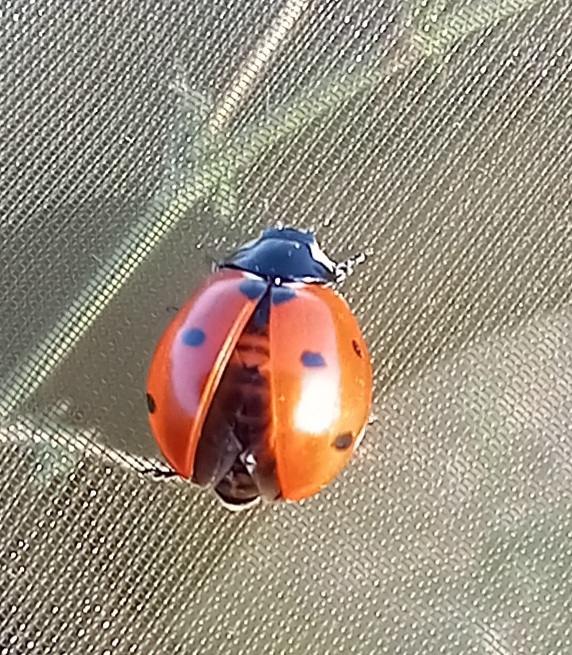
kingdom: Animalia
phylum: Arthropoda
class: Insecta
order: Coleoptera
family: Coccinellidae
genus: Coccinella
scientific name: Coccinella septempunctata
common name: Sevenspotted lady beetle
